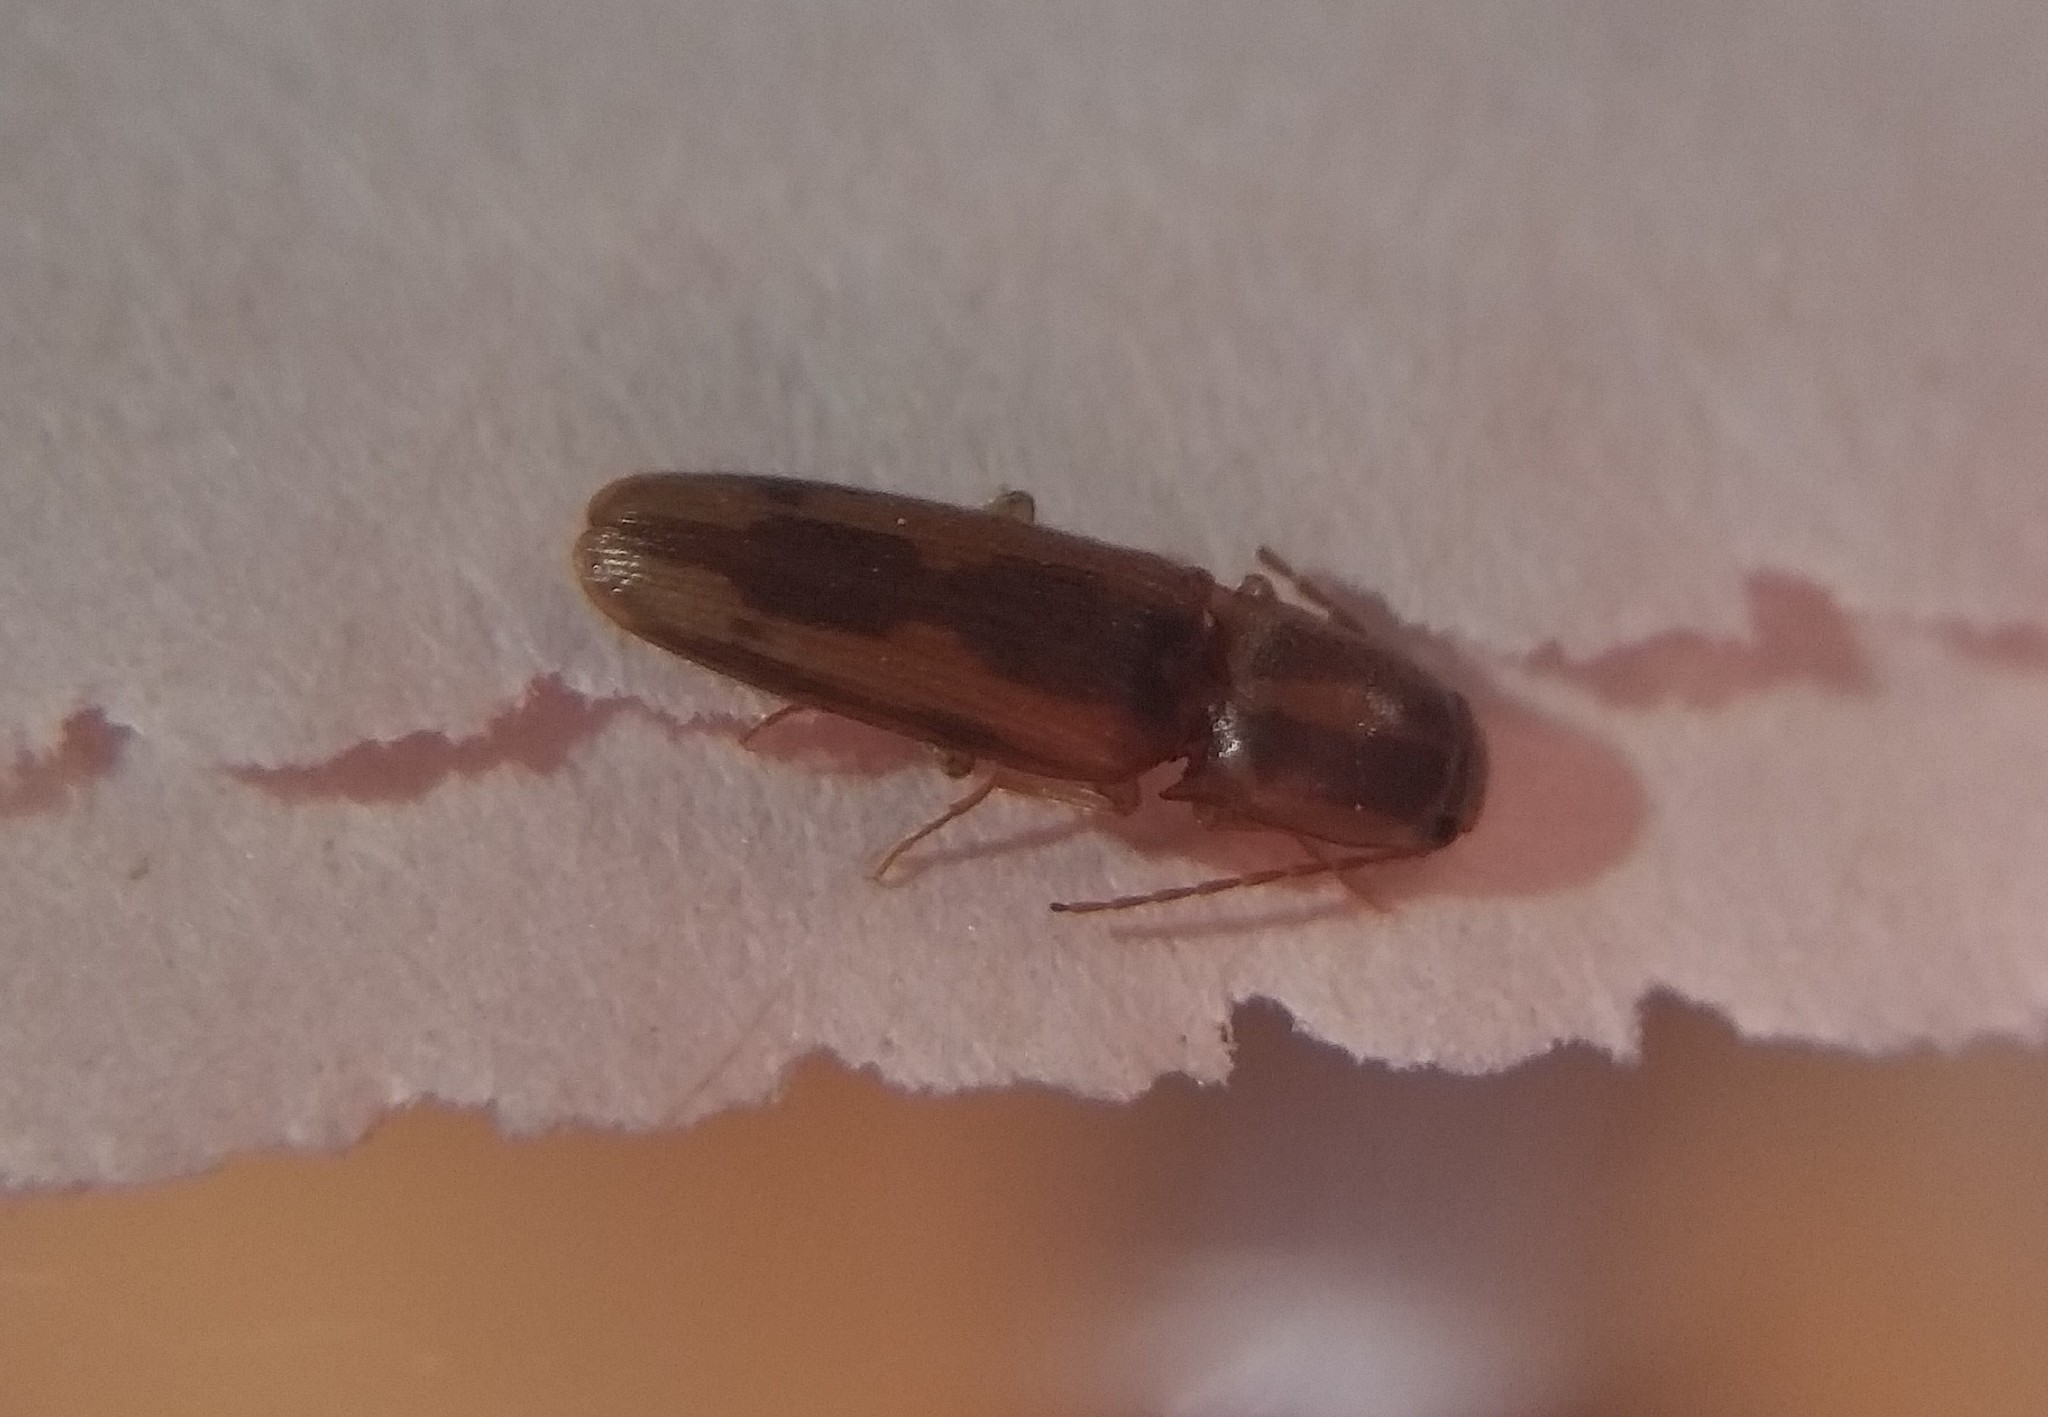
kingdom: Animalia
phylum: Arthropoda
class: Insecta
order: Coleoptera
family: Elateridae
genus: Monocrepidius
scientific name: Monocrepidius
